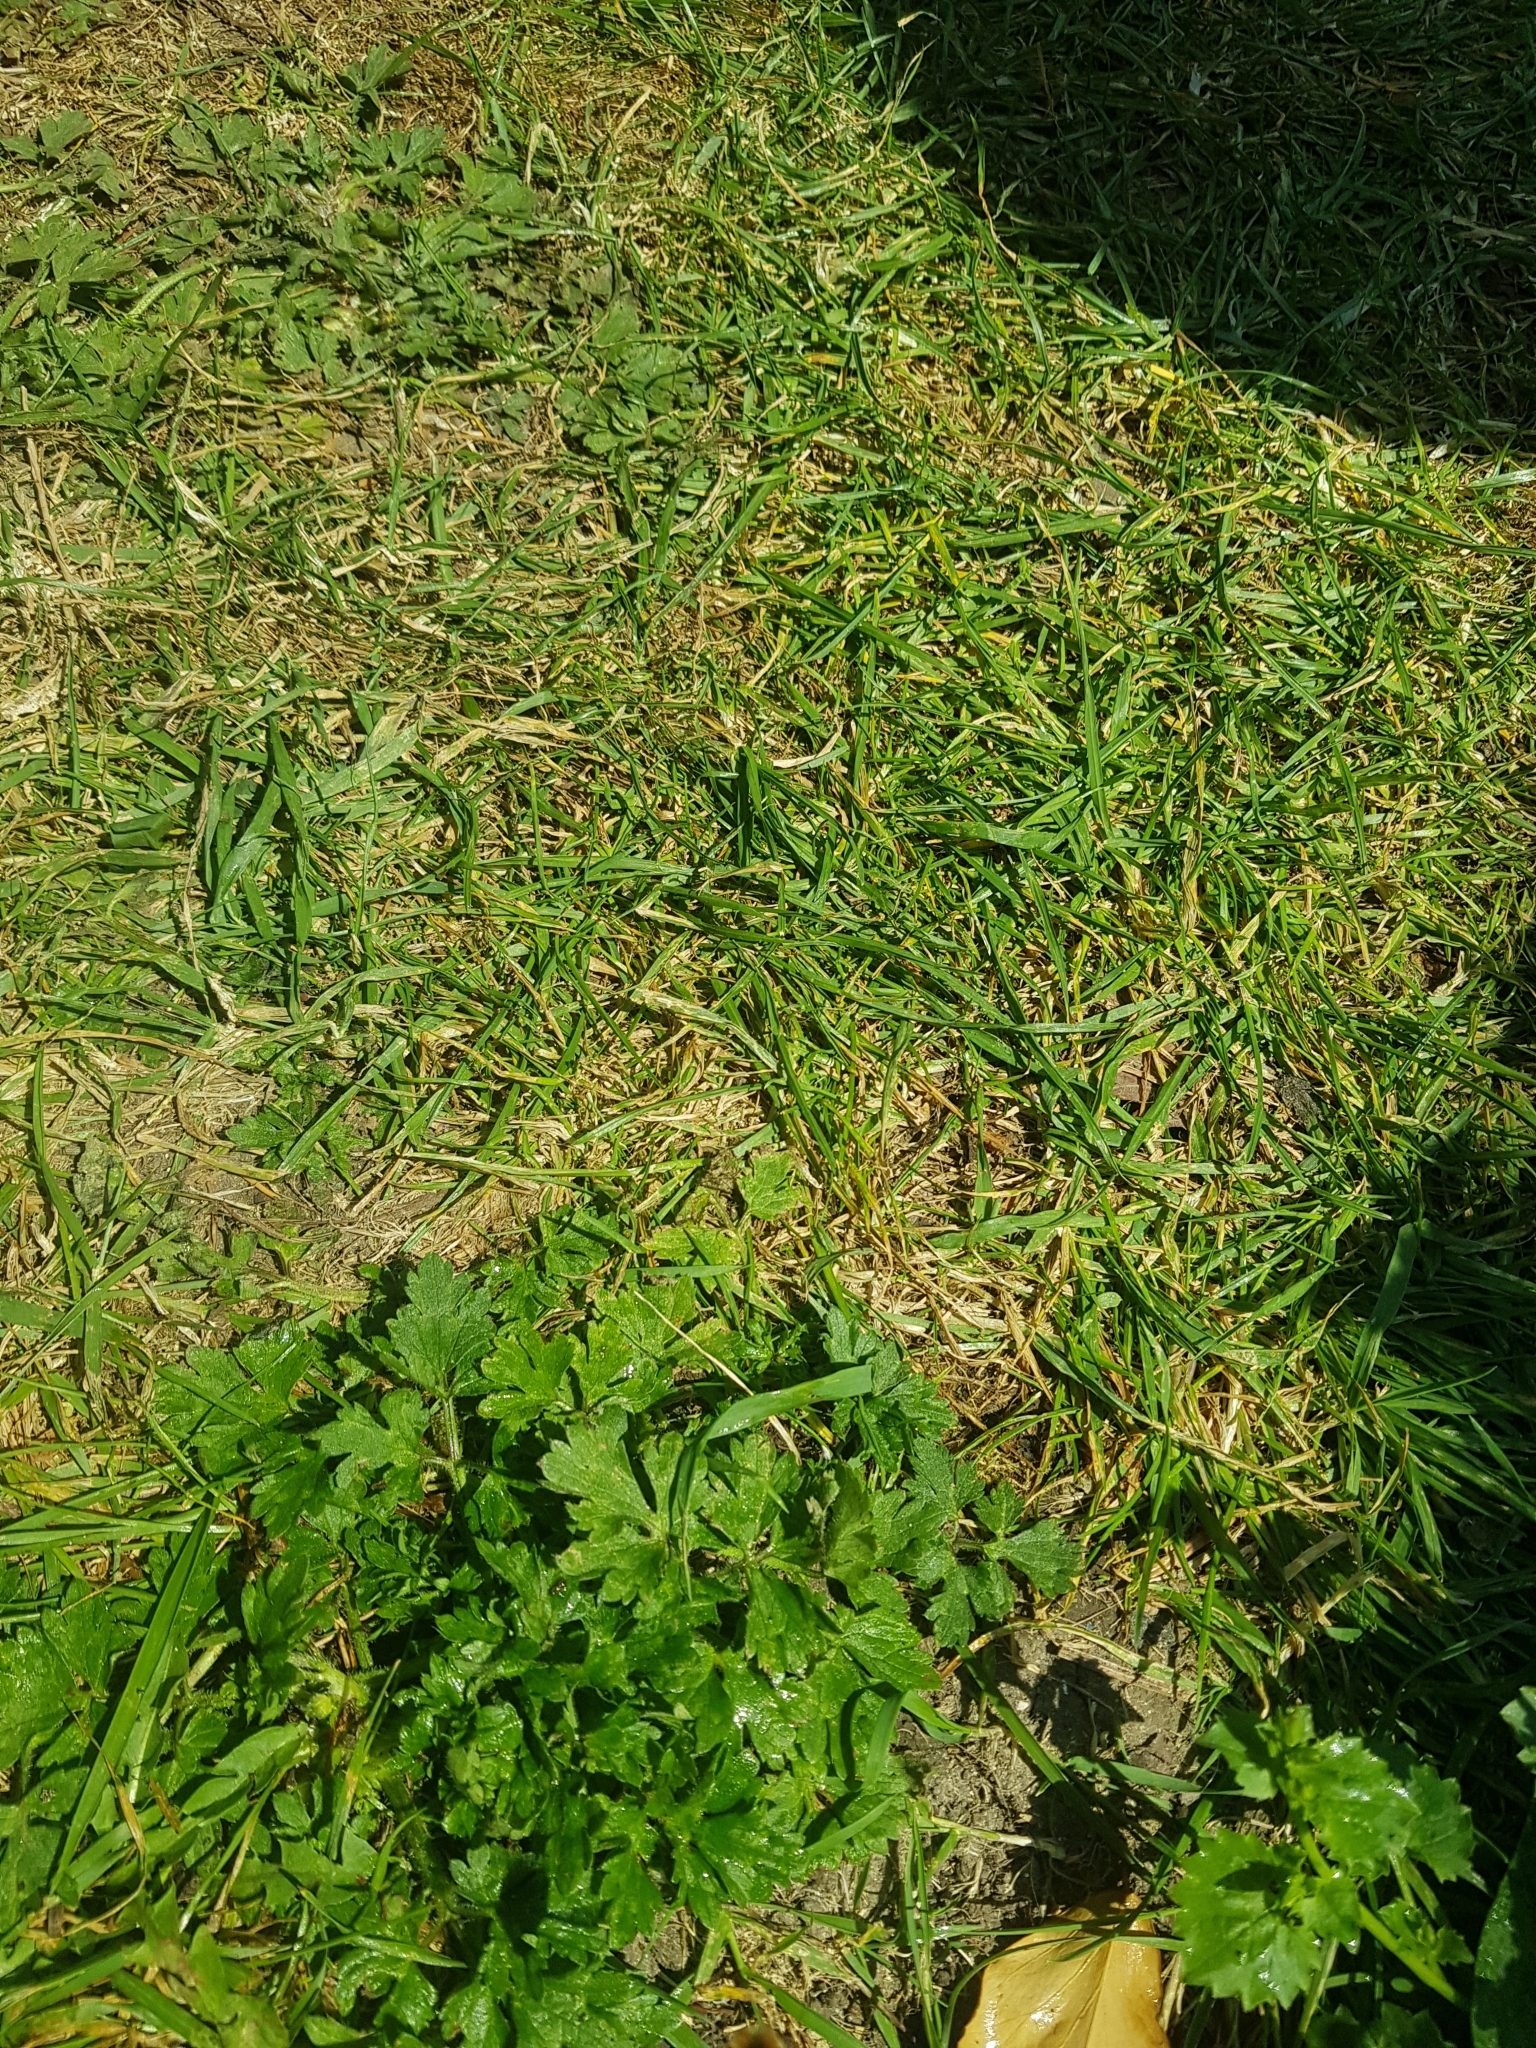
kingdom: Plantae
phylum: Tracheophyta
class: Magnoliopsida
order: Ranunculales
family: Ranunculaceae
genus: Ranunculus
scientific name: Ranunculus repens
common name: Creeping buttercup
